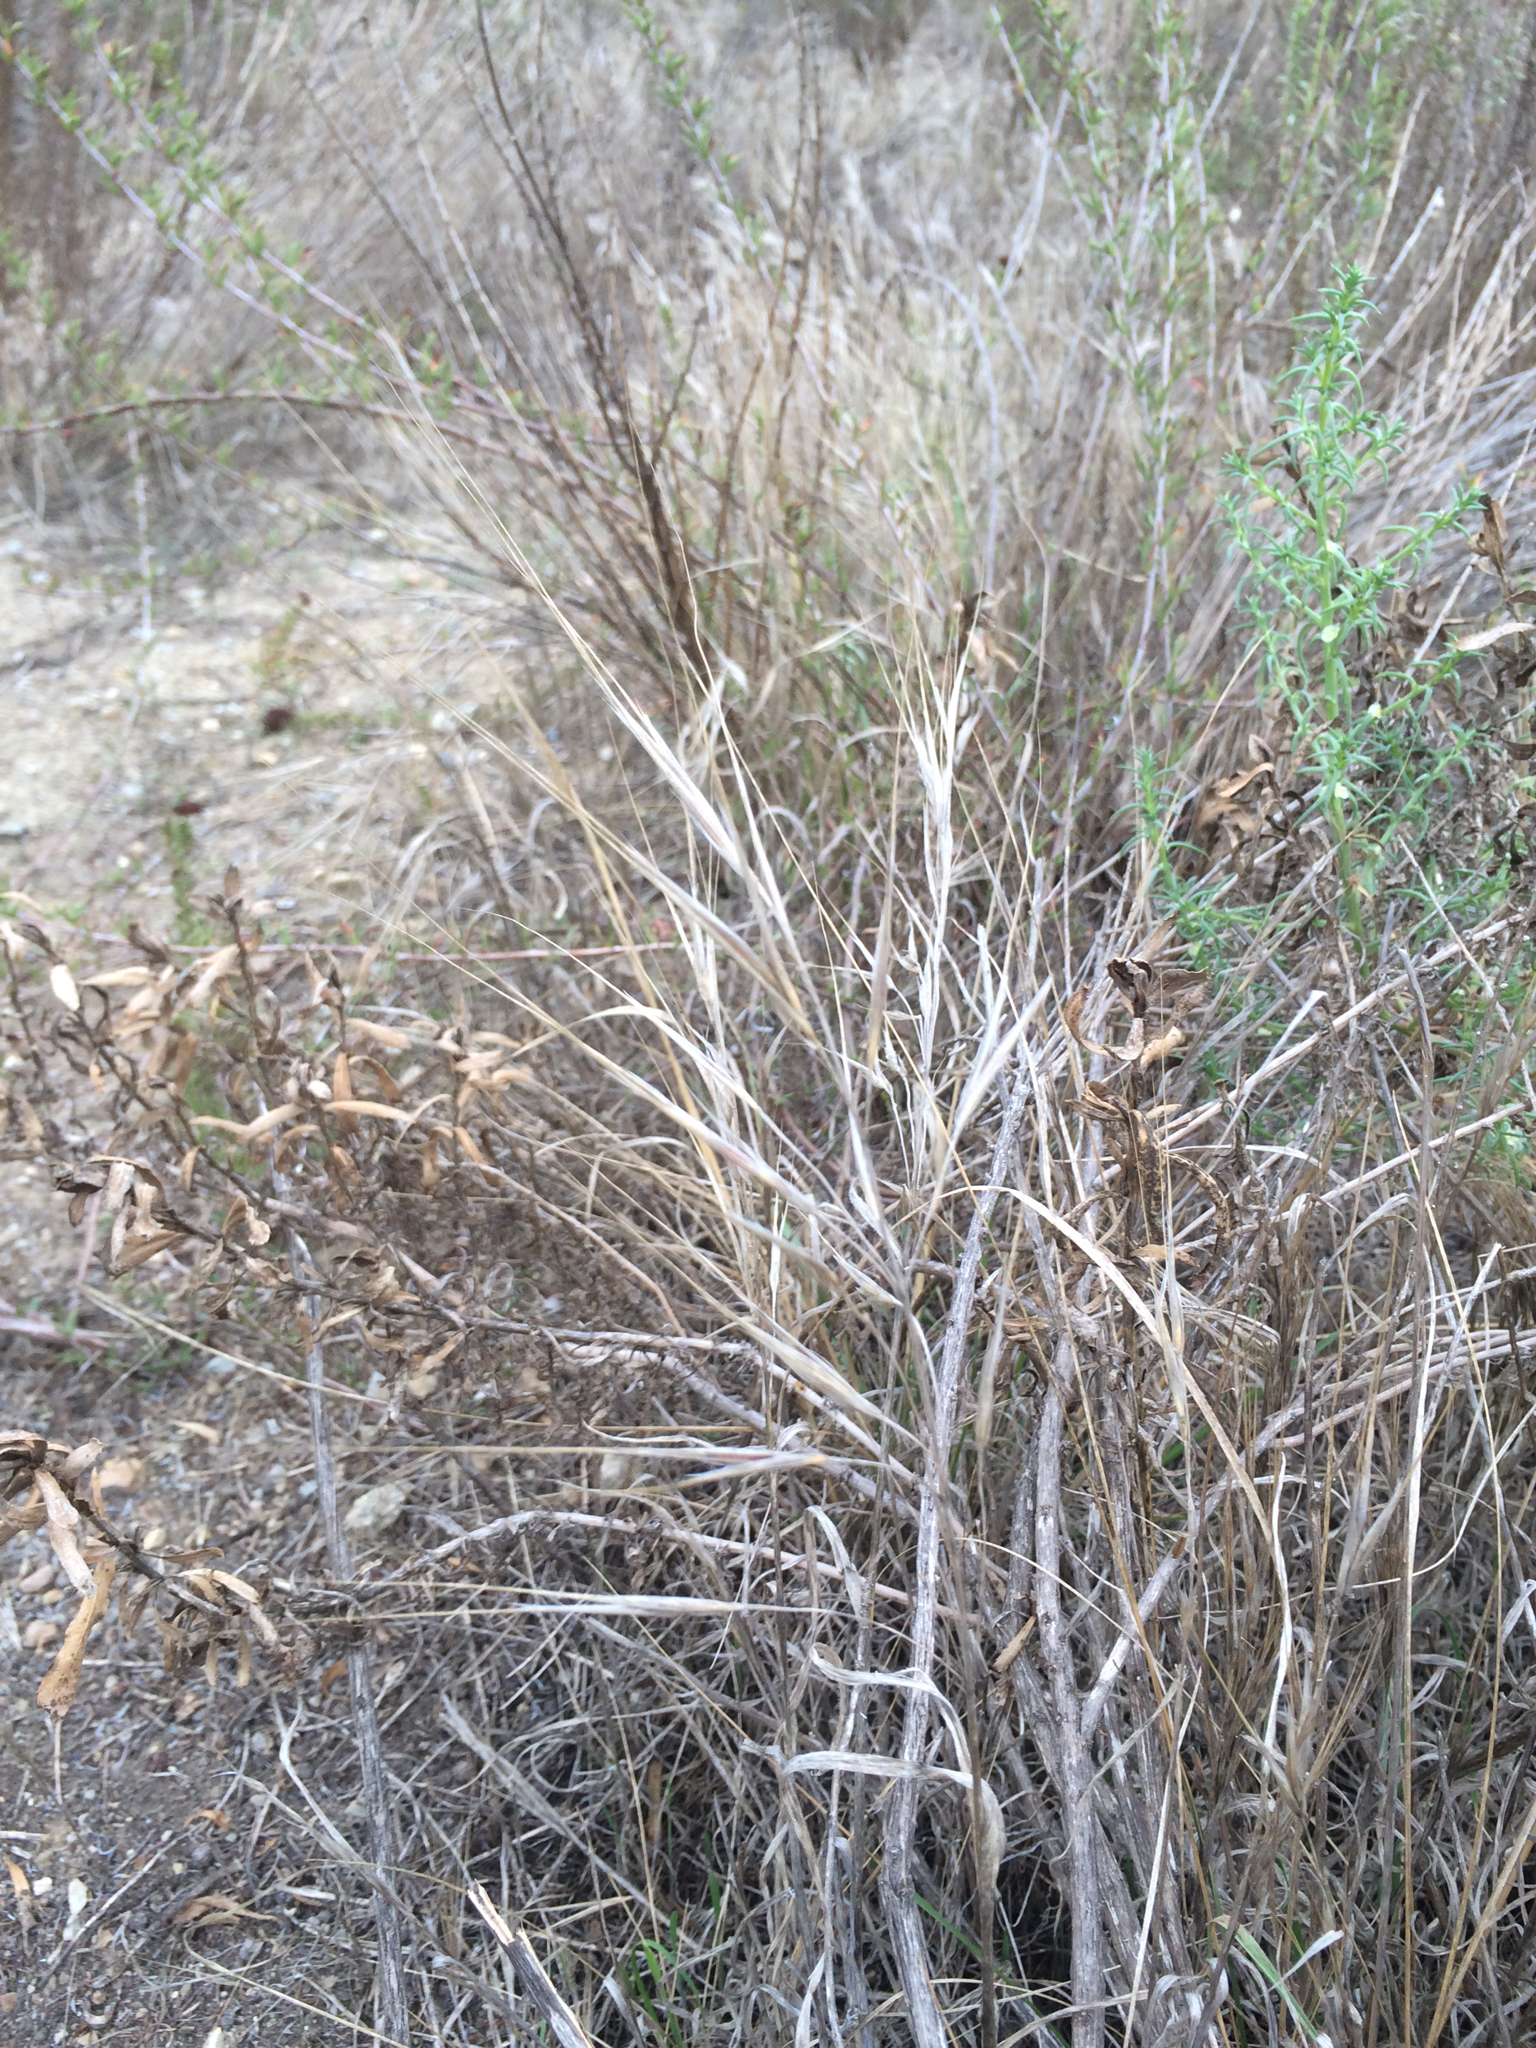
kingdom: Plantae
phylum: Tracheophyta
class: Liliopsida
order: Poales
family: Poaceae
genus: Bromus
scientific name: Bromus diandrus
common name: Ripgut brome
